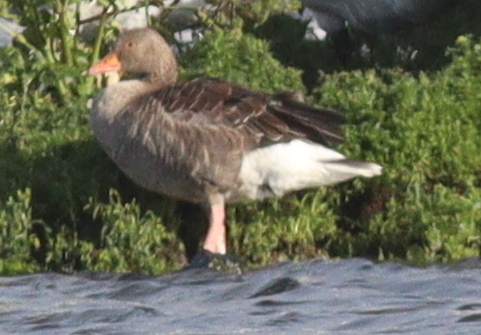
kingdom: Animalia
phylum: Chordata
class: Aves
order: Anseriformes
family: Anatidae
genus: Anser
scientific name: Anser anser
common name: Greylag goose
